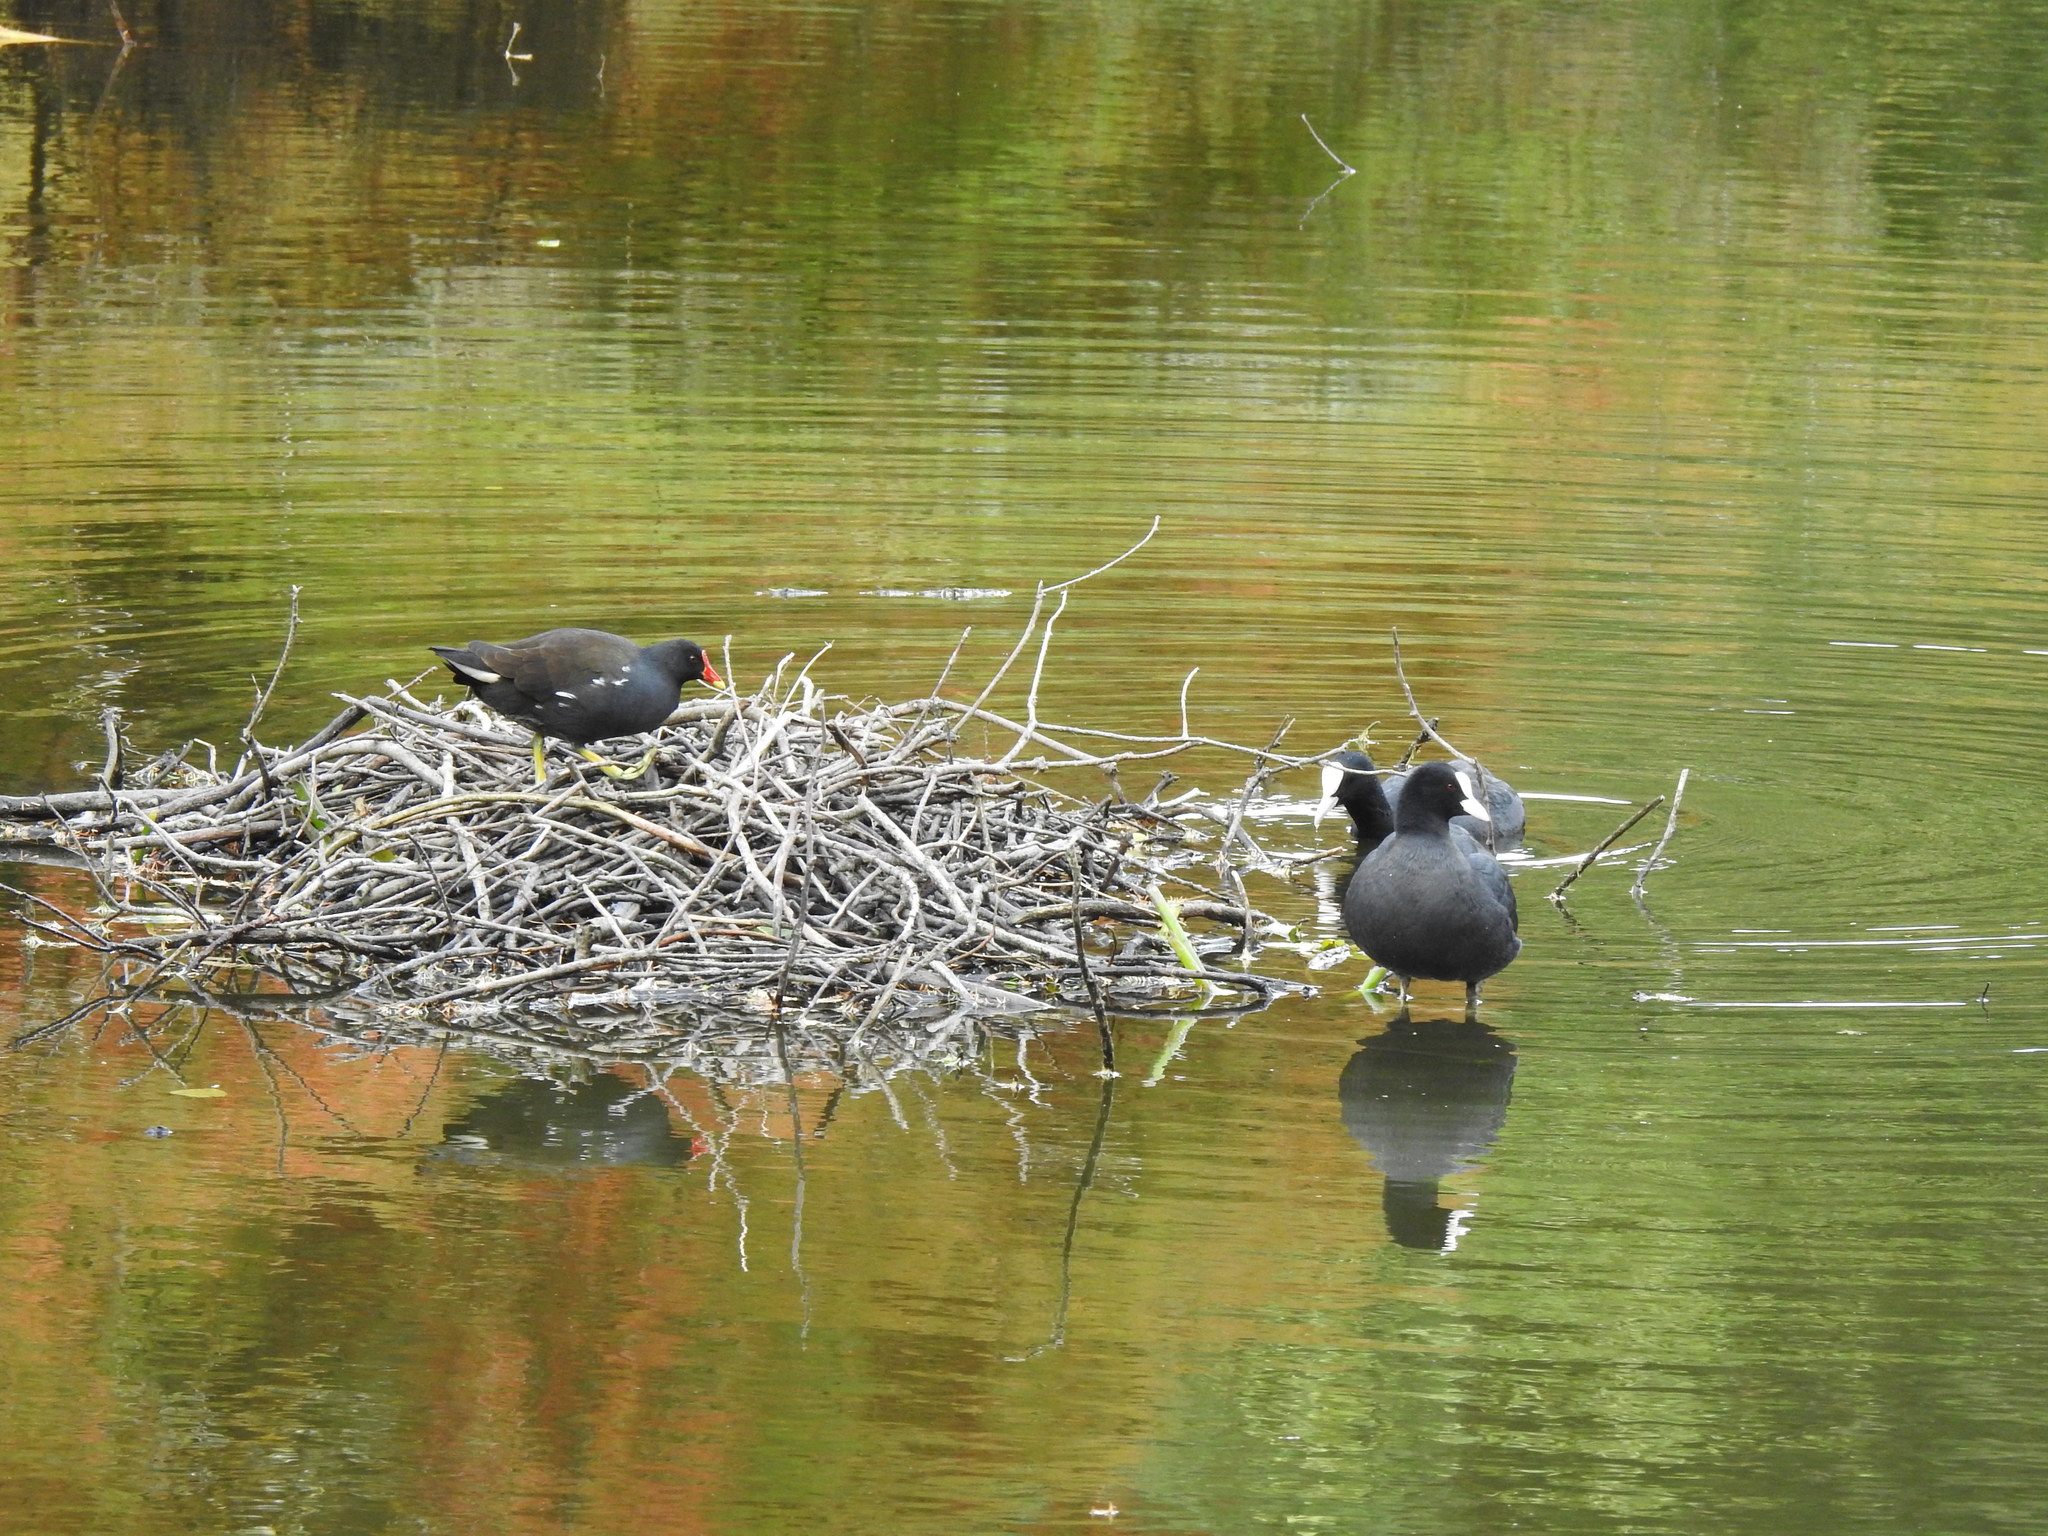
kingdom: Animalia
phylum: Chordata
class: Aves
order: Gruiformes
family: Rallidae
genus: Gallinula
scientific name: Gallinula chloropus
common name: Common moorhen
